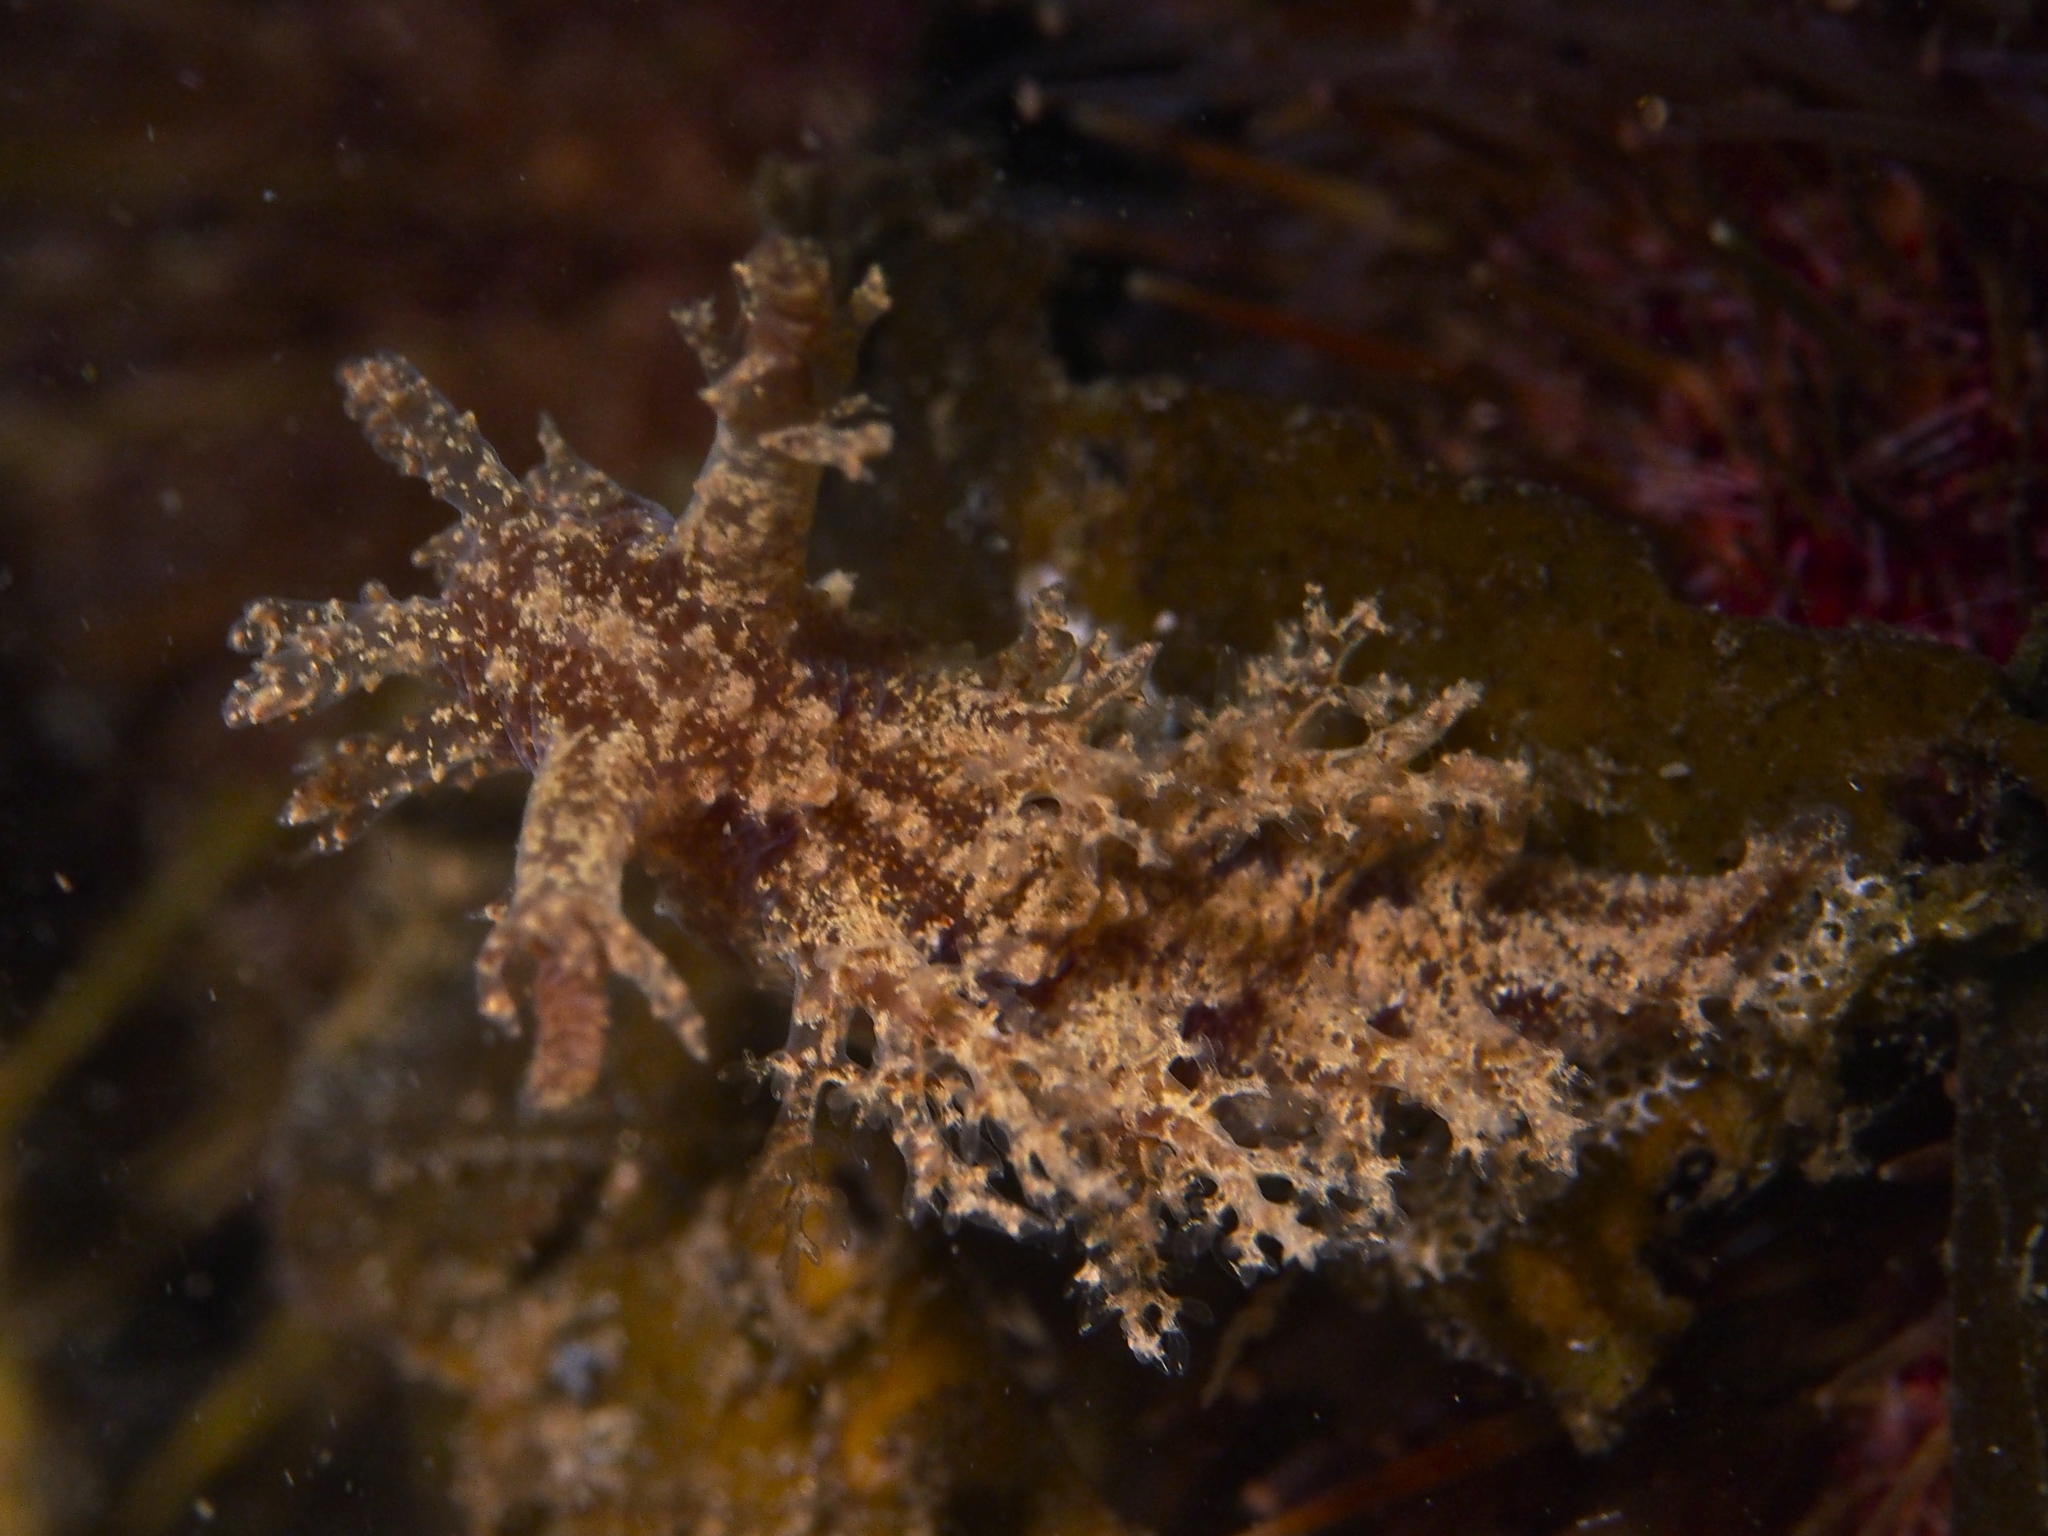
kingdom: Animalia
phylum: Mollusca
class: Gastropoda
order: Nudibranchia
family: Dendronotidae
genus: Dendronotus
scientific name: Dendronotus frondosus
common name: Bushy-backed nudibranch
